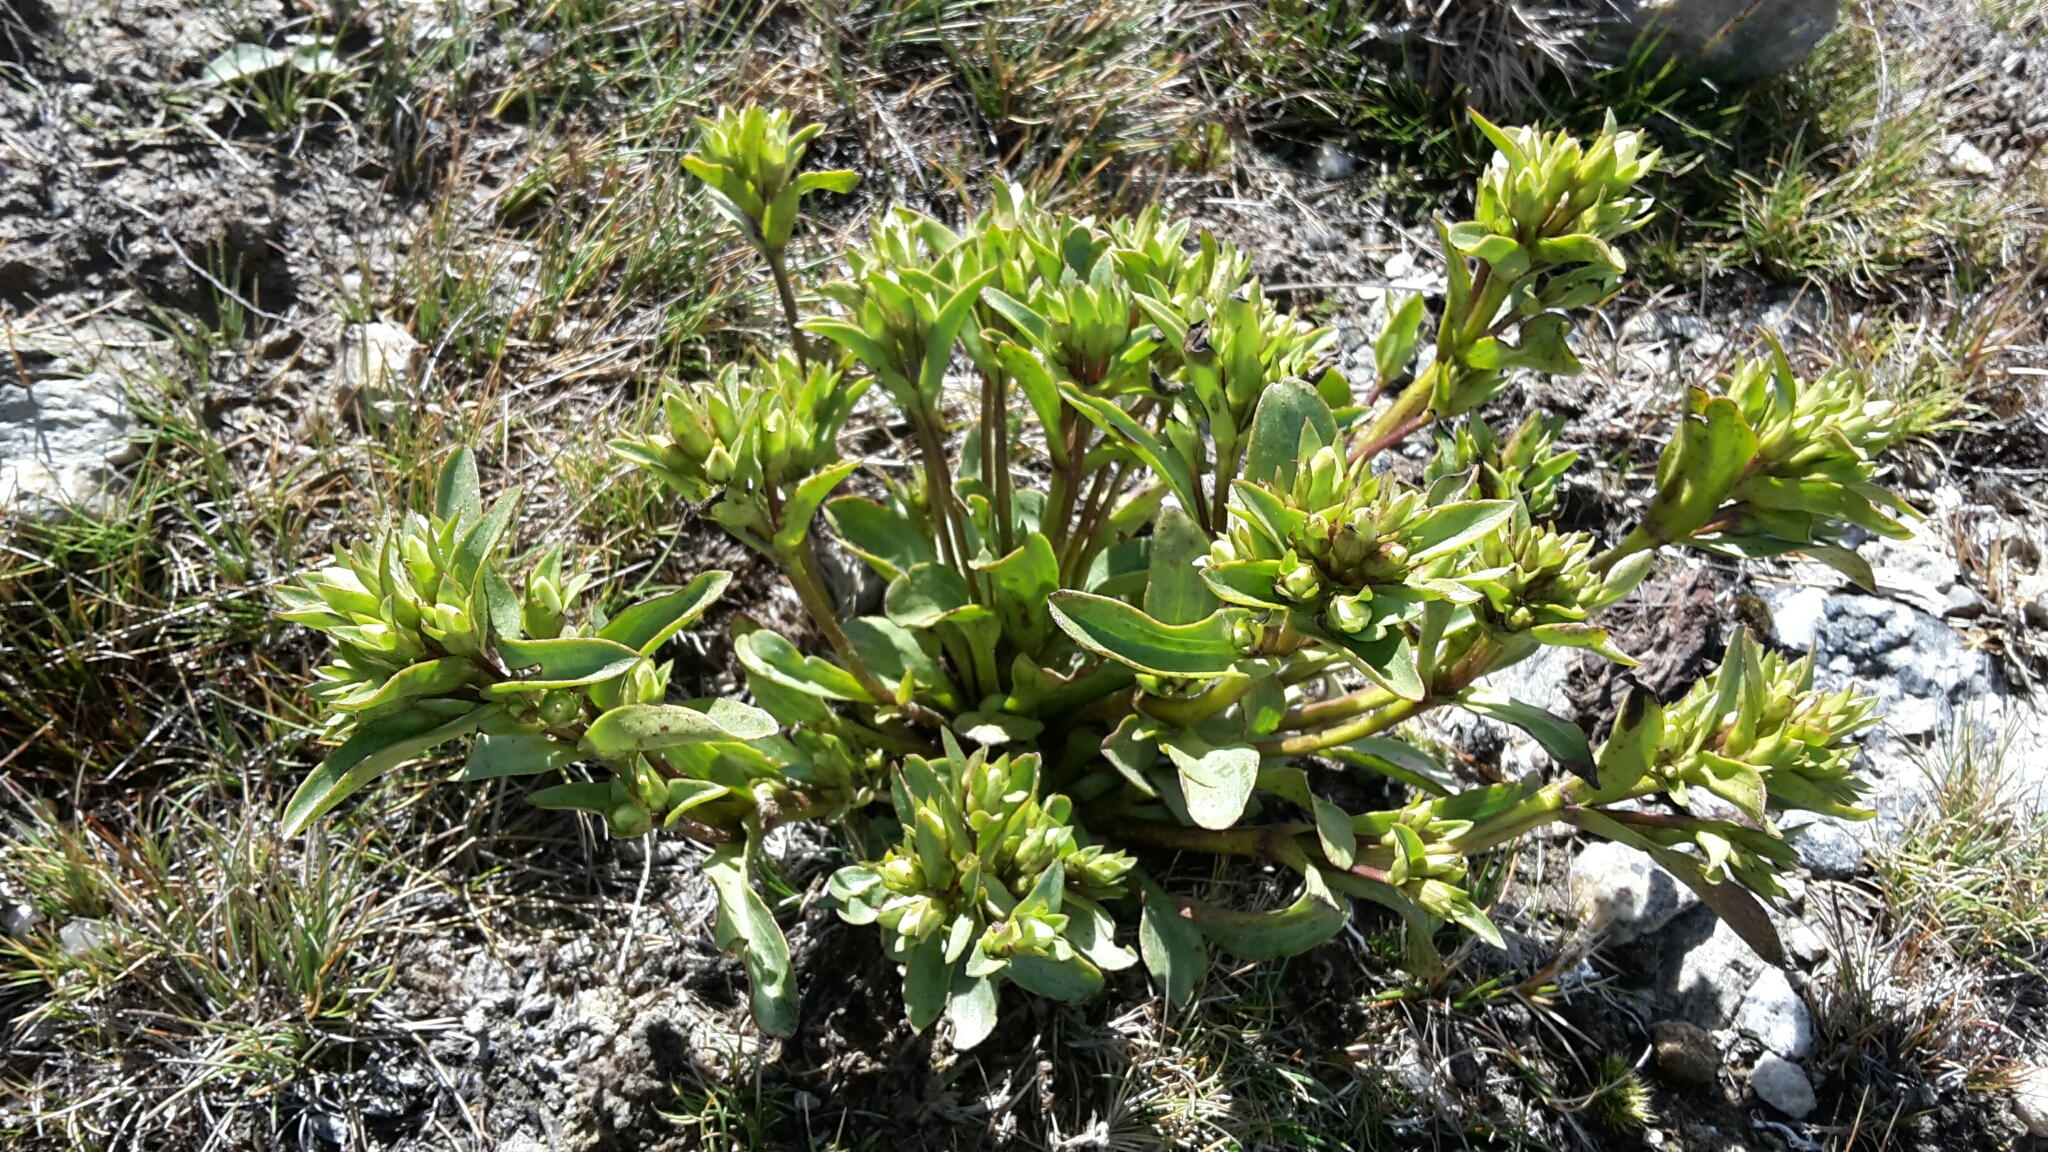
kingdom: Plantae
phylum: Tracheophyta
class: Magnoliopsida
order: Gentianales
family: Gentianaceae
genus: Gentianella
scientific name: Gentianella divisa
